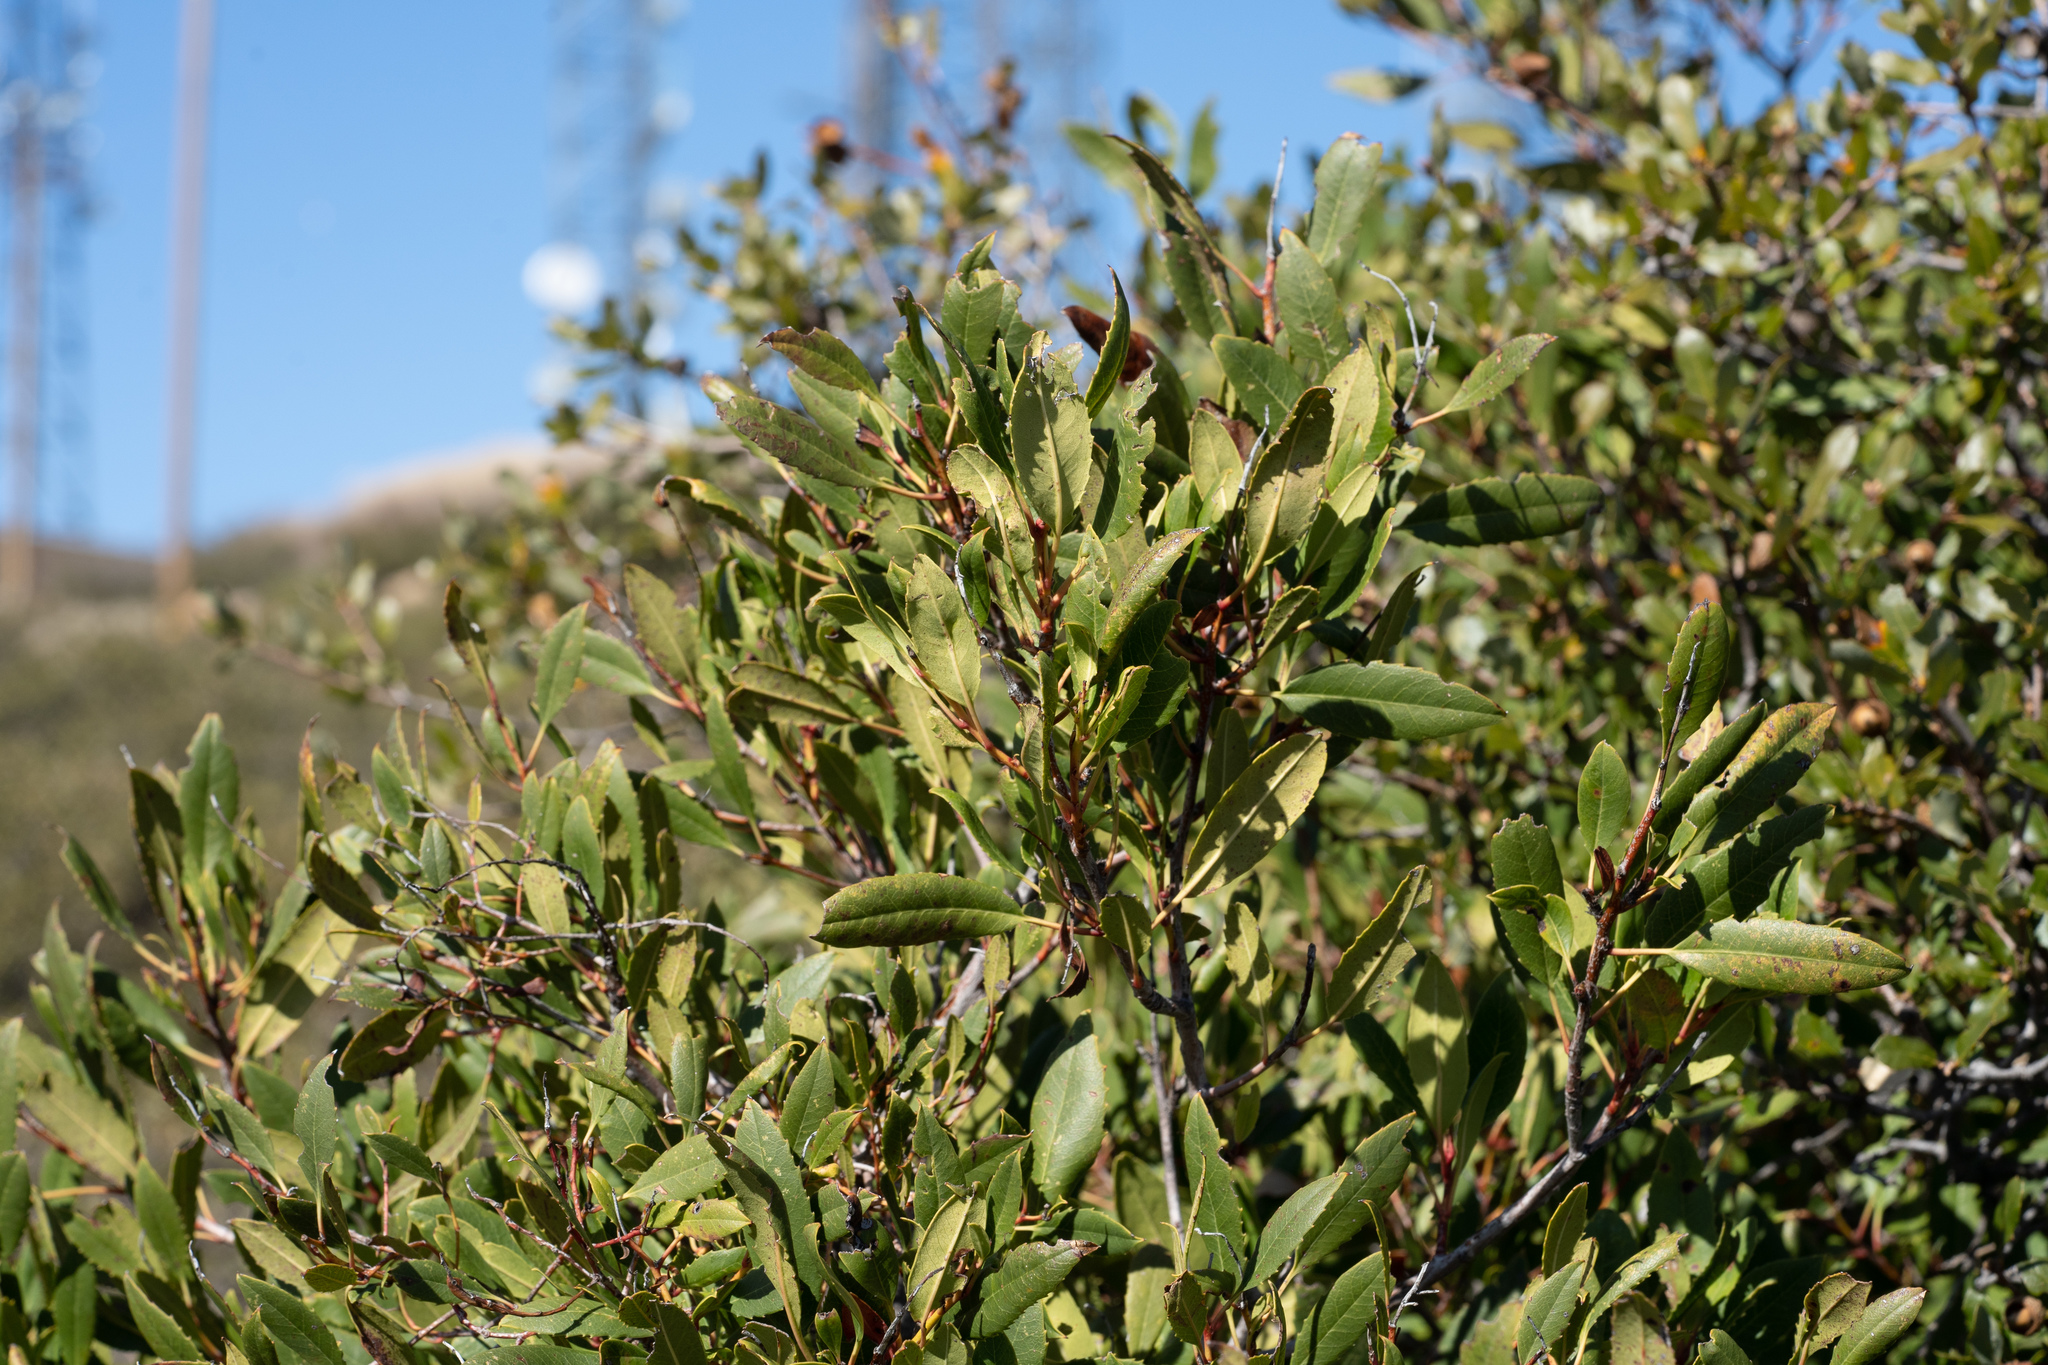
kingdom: Plantae
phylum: Tracheophyta
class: Magnoliopsida
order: Rosales
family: Rosaceae
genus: Heteromeles
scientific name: Heteromeles arbutifolia
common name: California-holly
